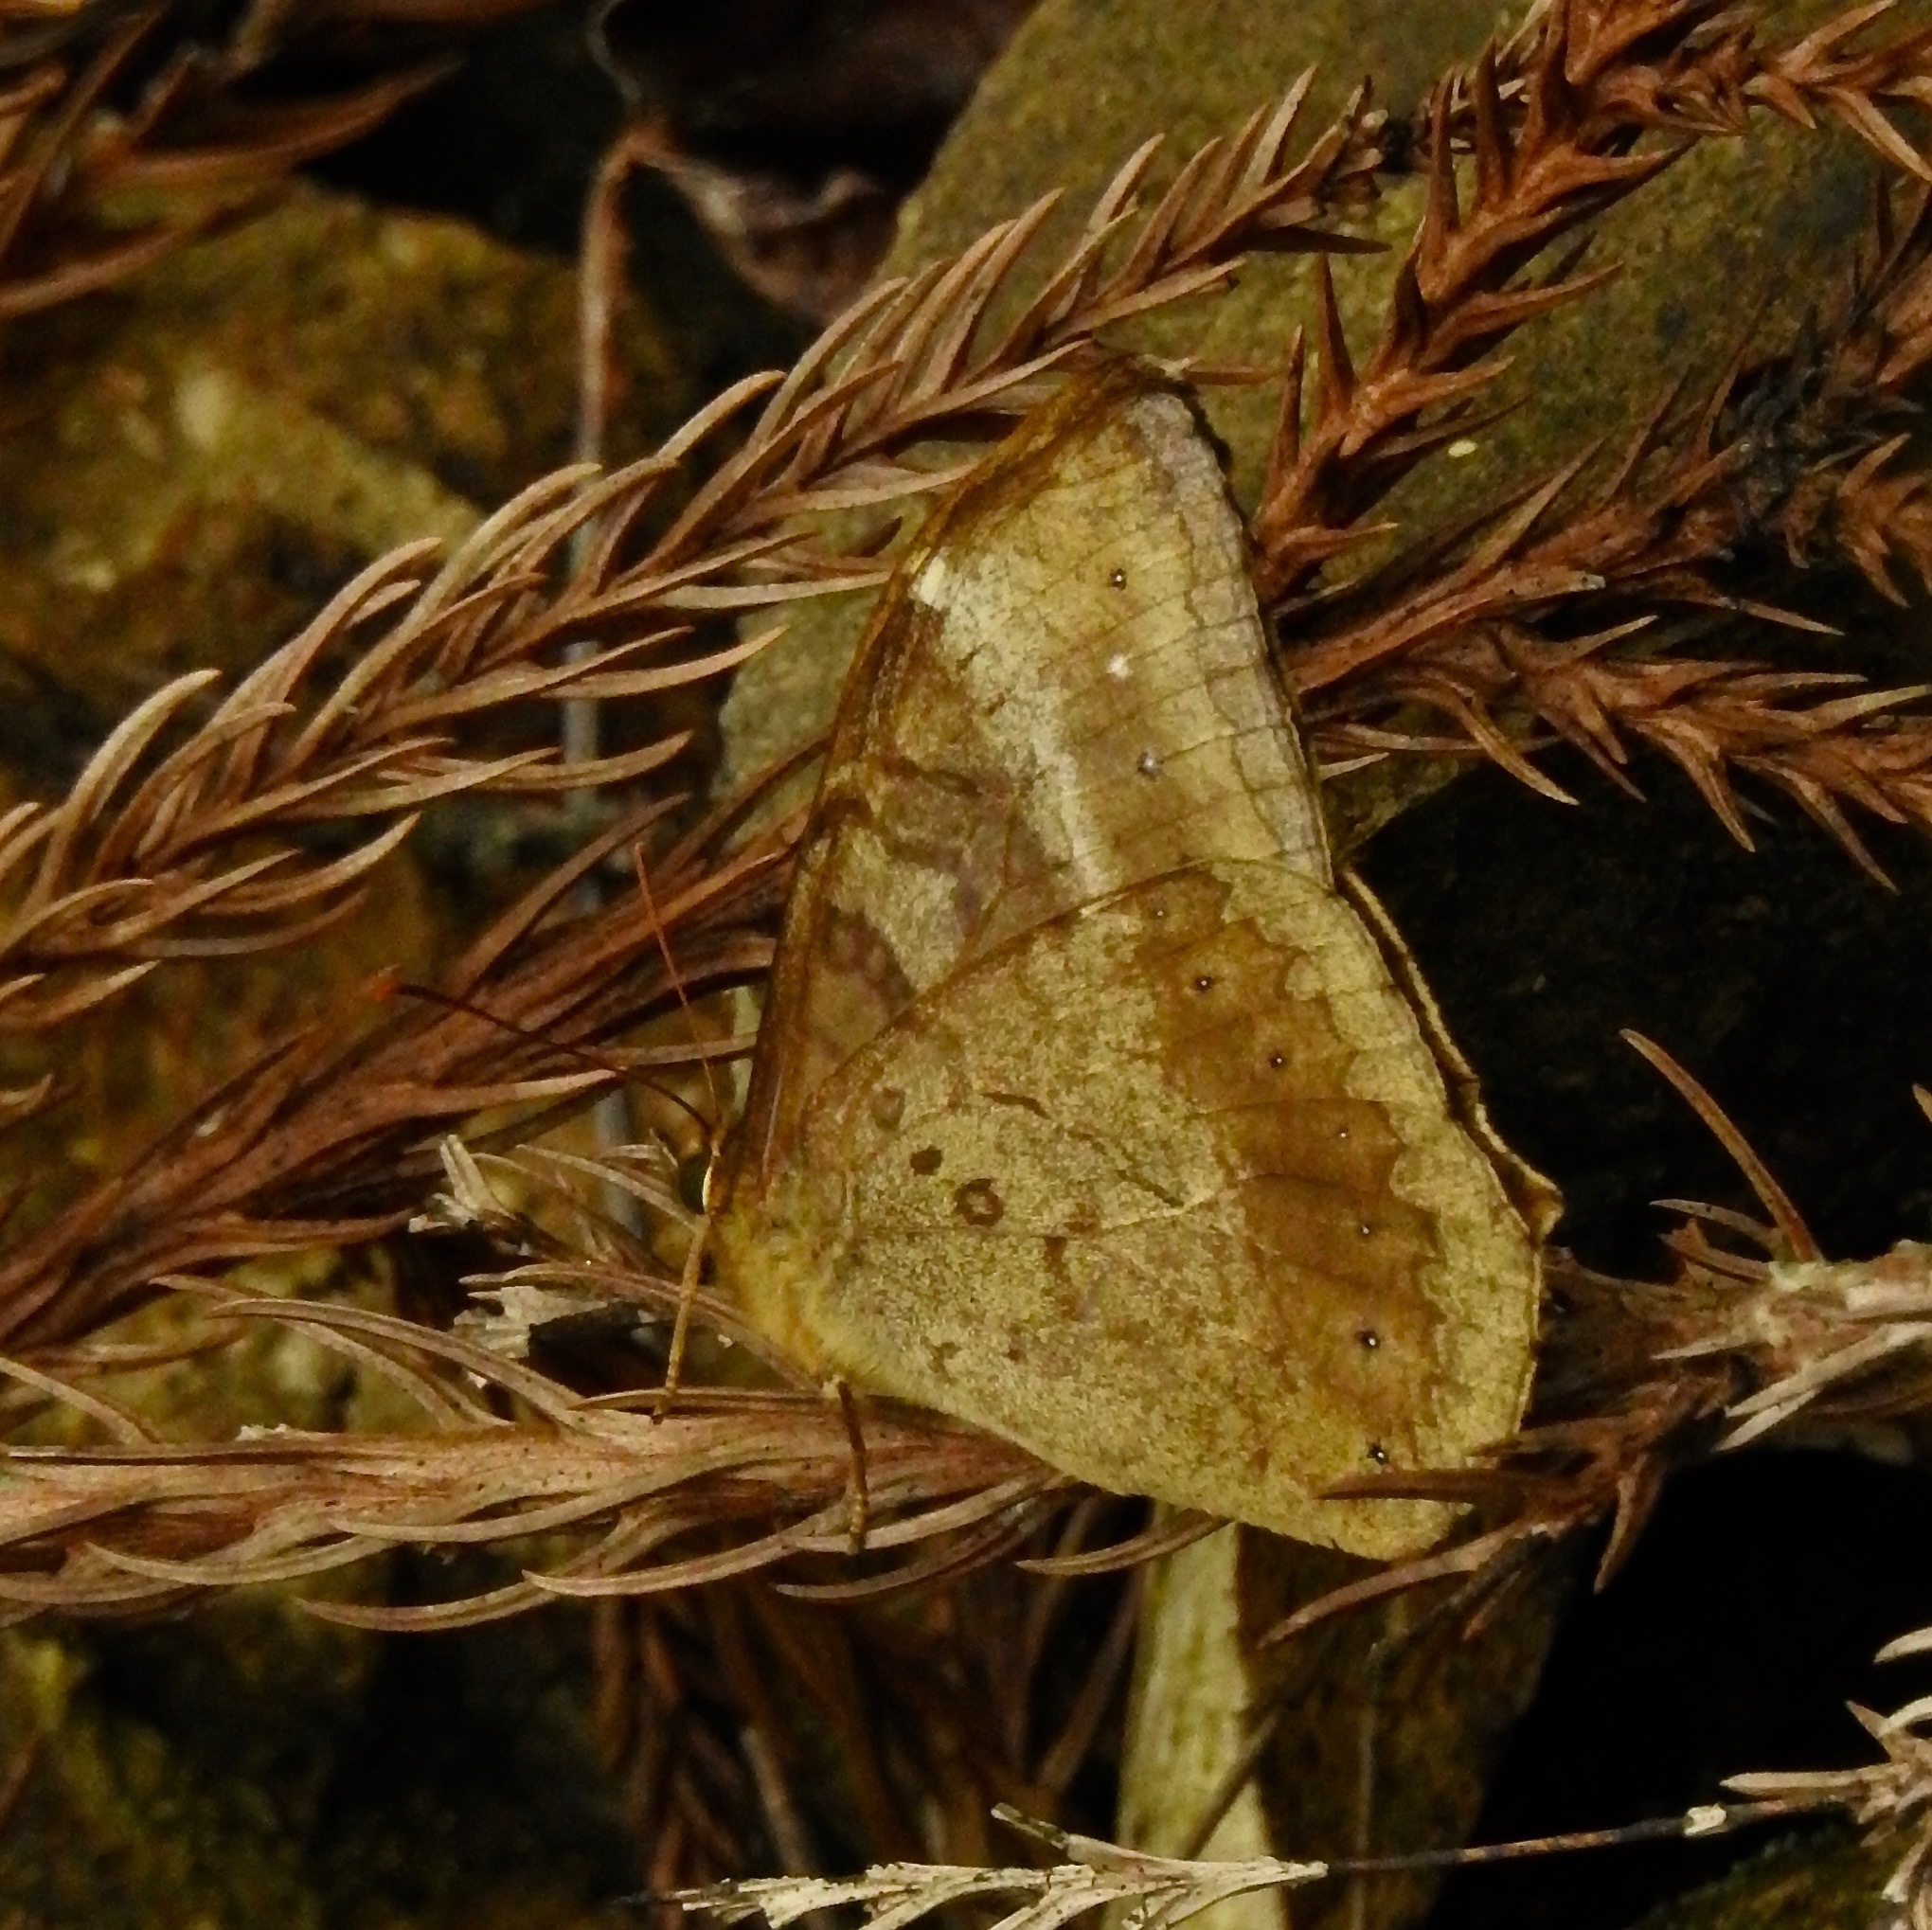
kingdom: Animalia
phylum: Arthropoda
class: Insecta
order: Lepidoptera
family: Nymphalidae
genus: Neope
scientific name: Neope muirheadii
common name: Black-spotted labyrinth
